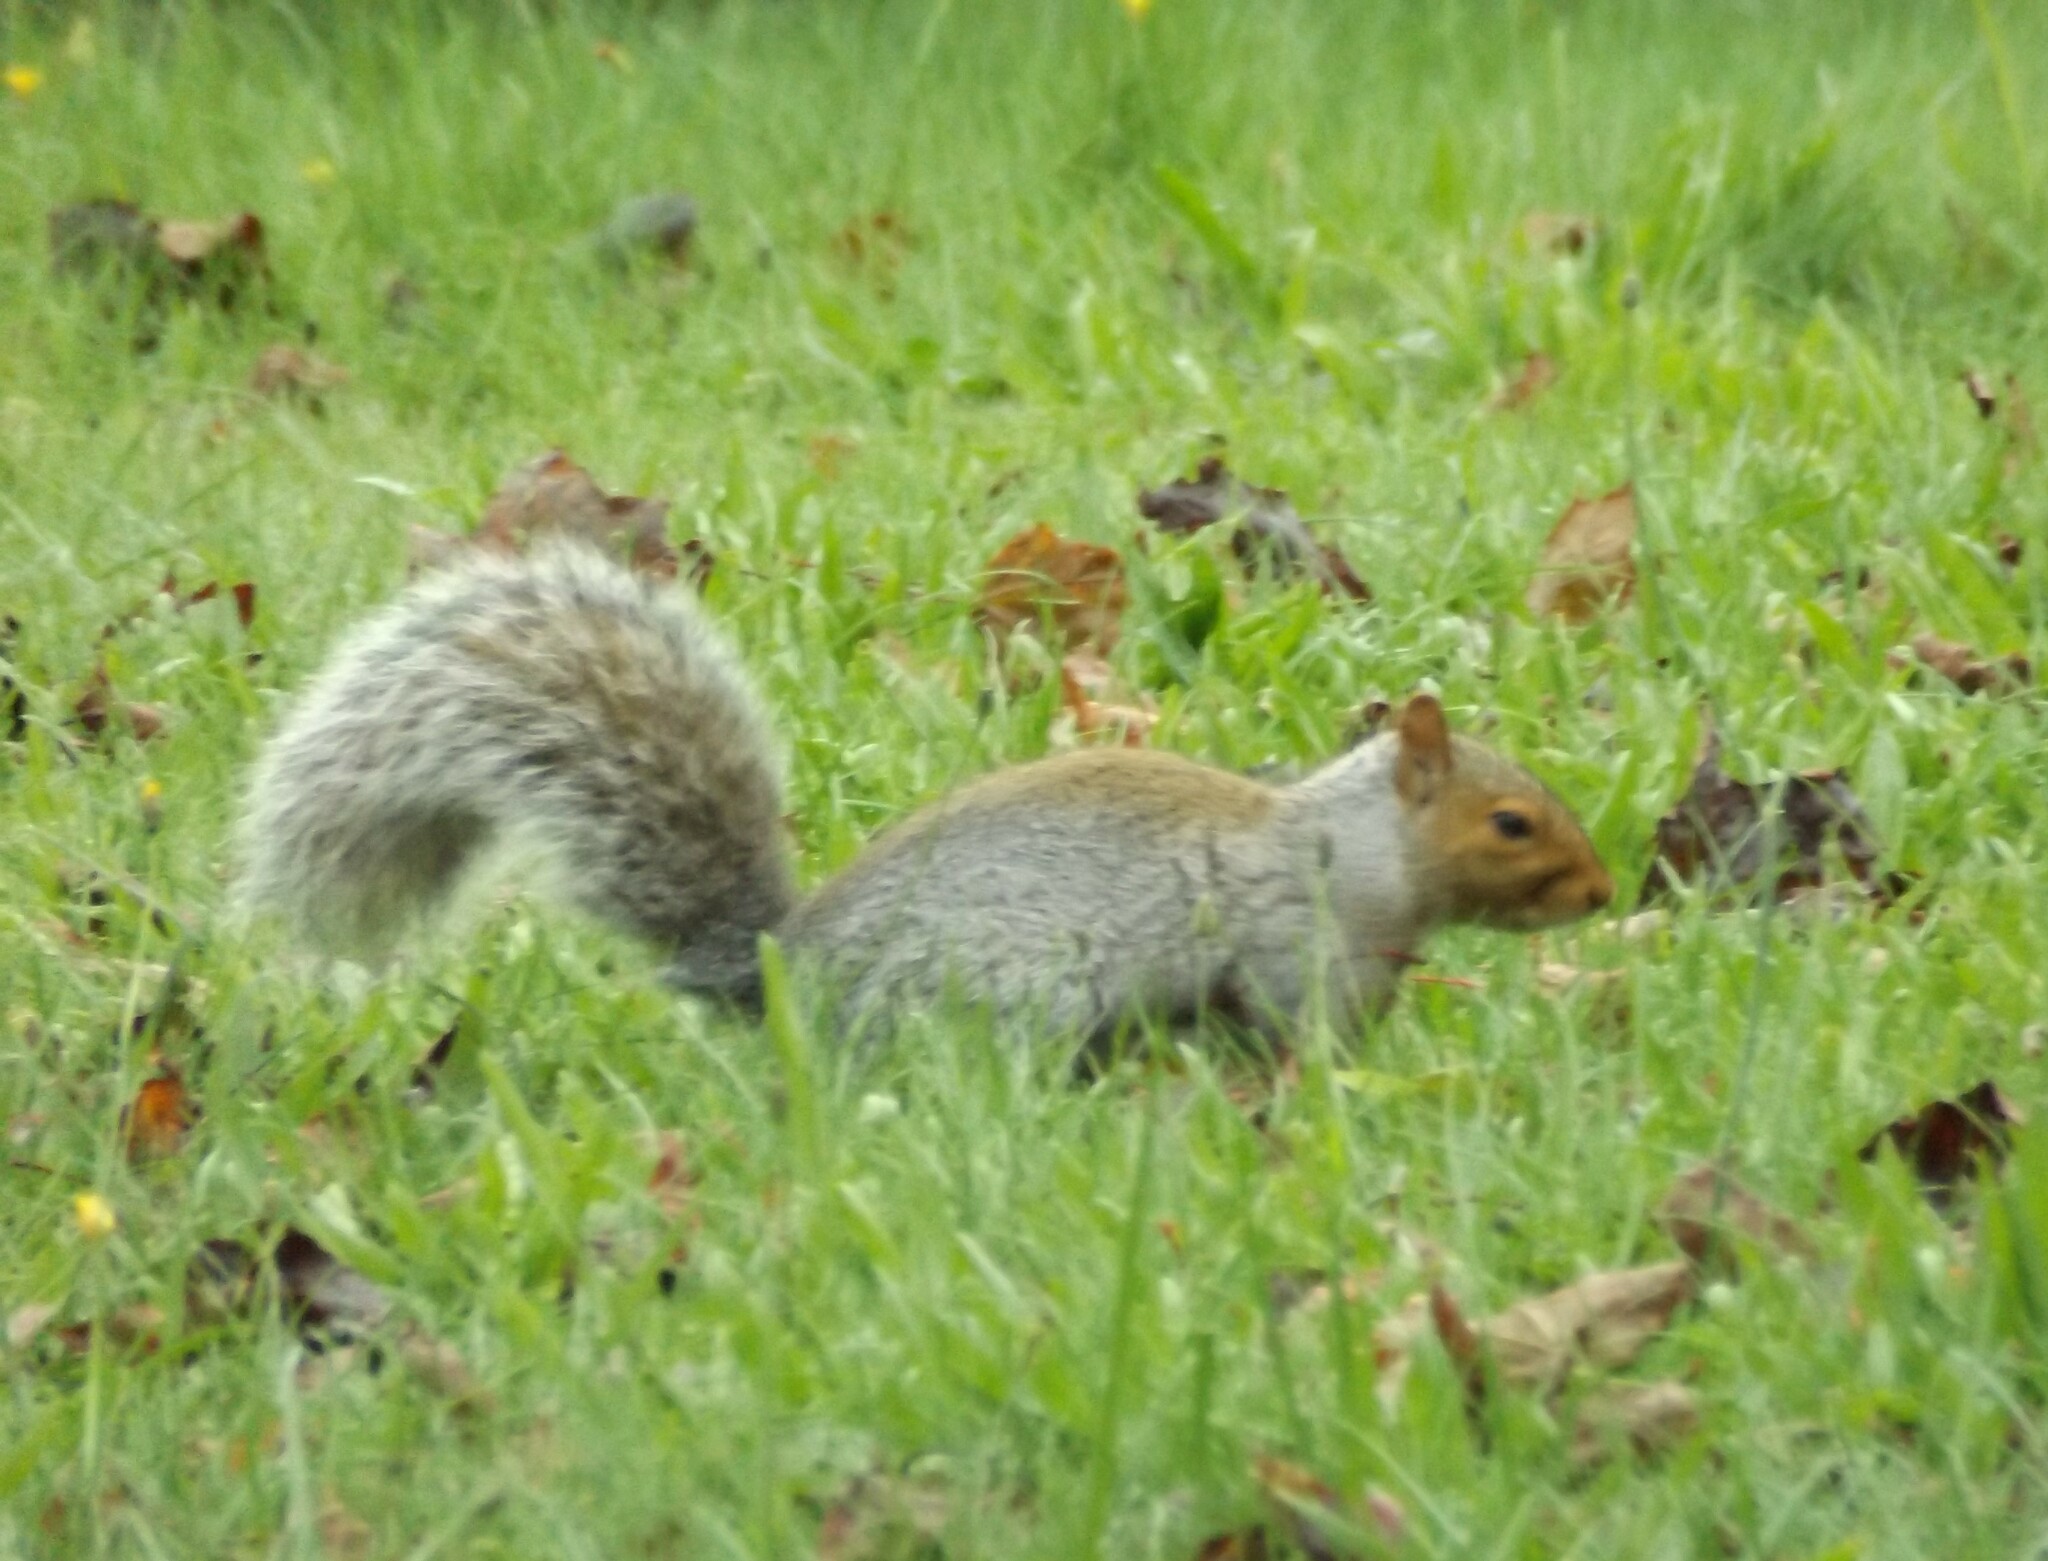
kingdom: Animalia
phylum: Chordata
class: Mammalia
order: Rodentia
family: Sciuridae
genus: Sciurus
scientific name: Sciurus carolinensis
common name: Eastern gray squirrel
